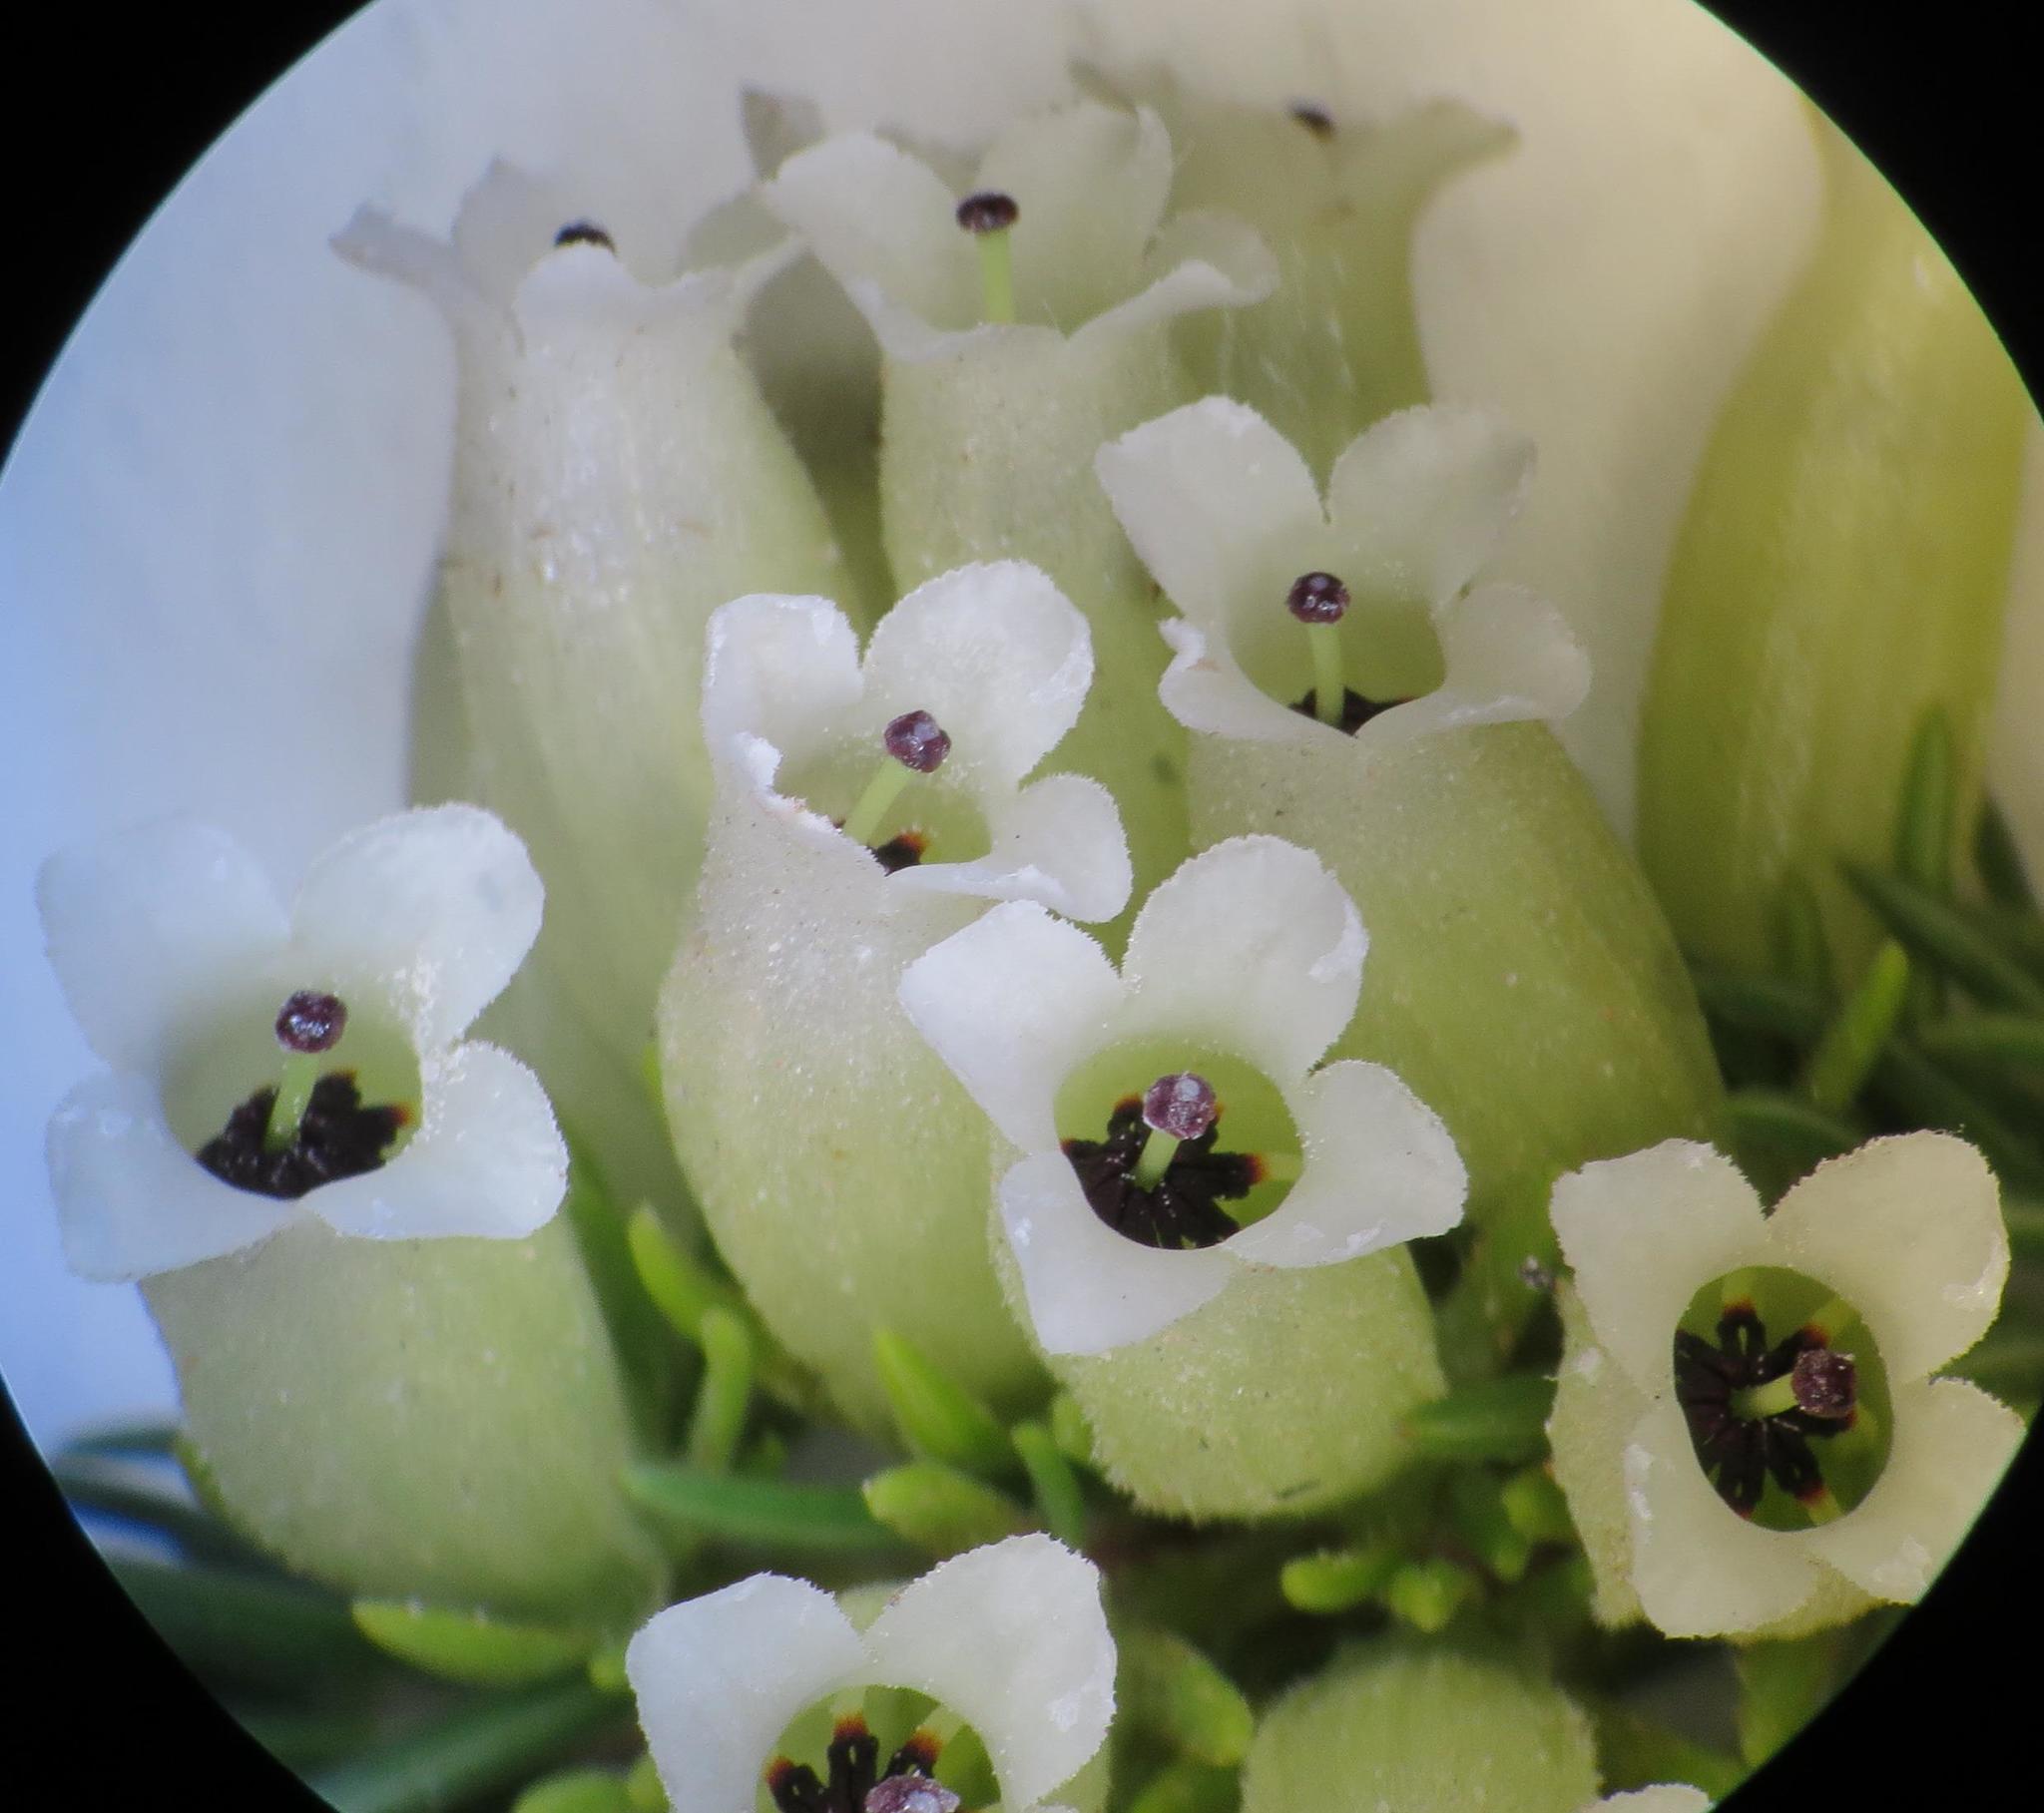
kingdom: Plantae
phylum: Tracheophyta
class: Magnoliopsida
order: Ericales
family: Ericaceae
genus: Erica
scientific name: Erica viscaria
